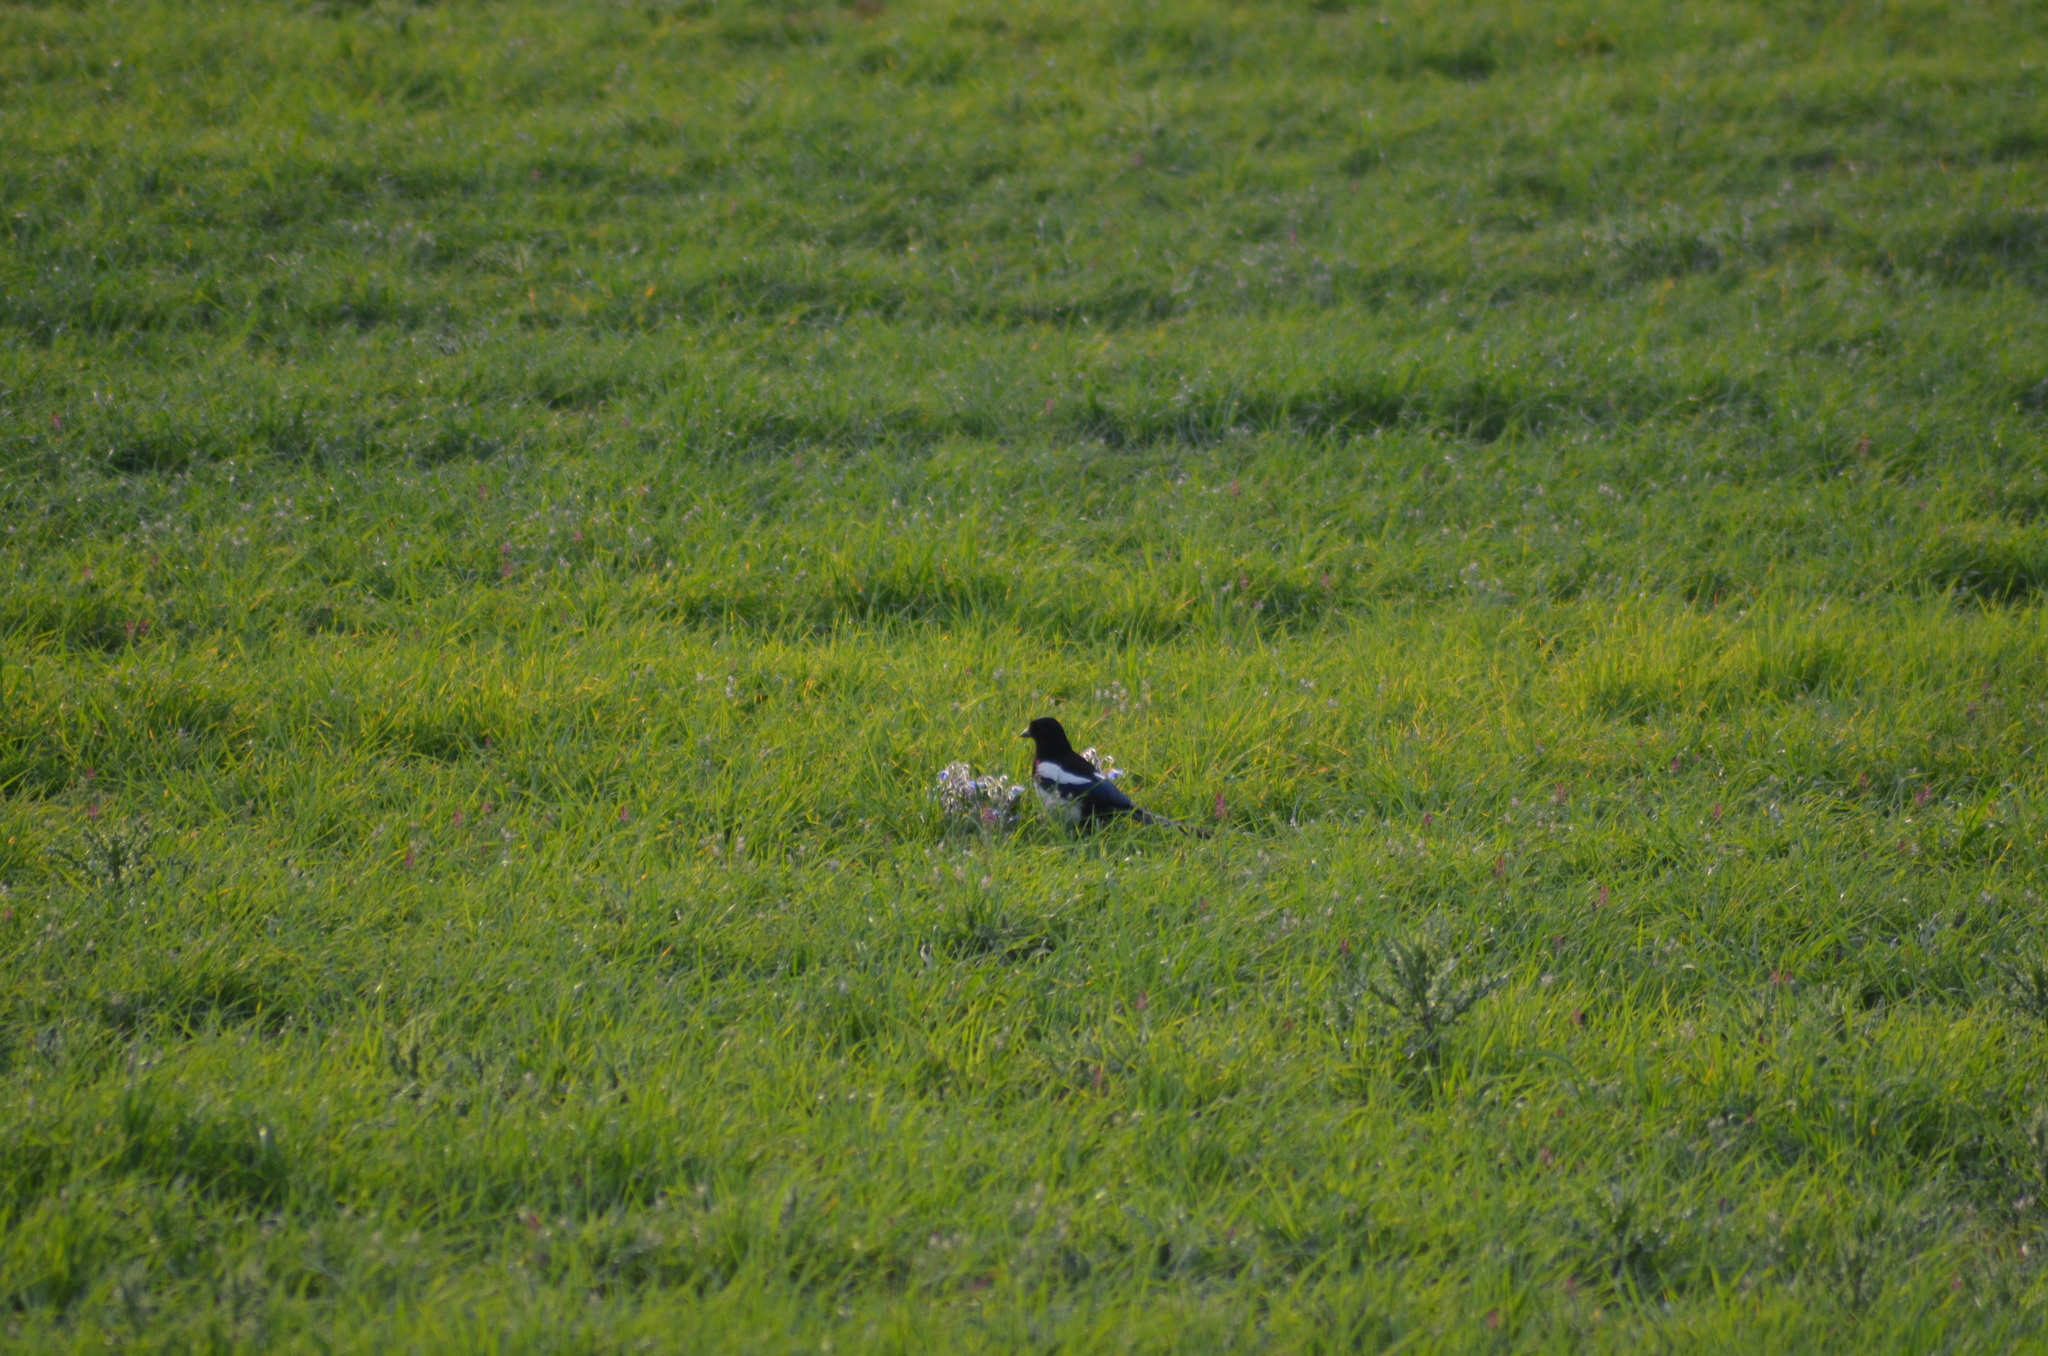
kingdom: Animalia
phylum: Chordata
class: Aves
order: Passeriformes
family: Corvidae
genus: Pica
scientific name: Pica pica
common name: Eurasian magpie
